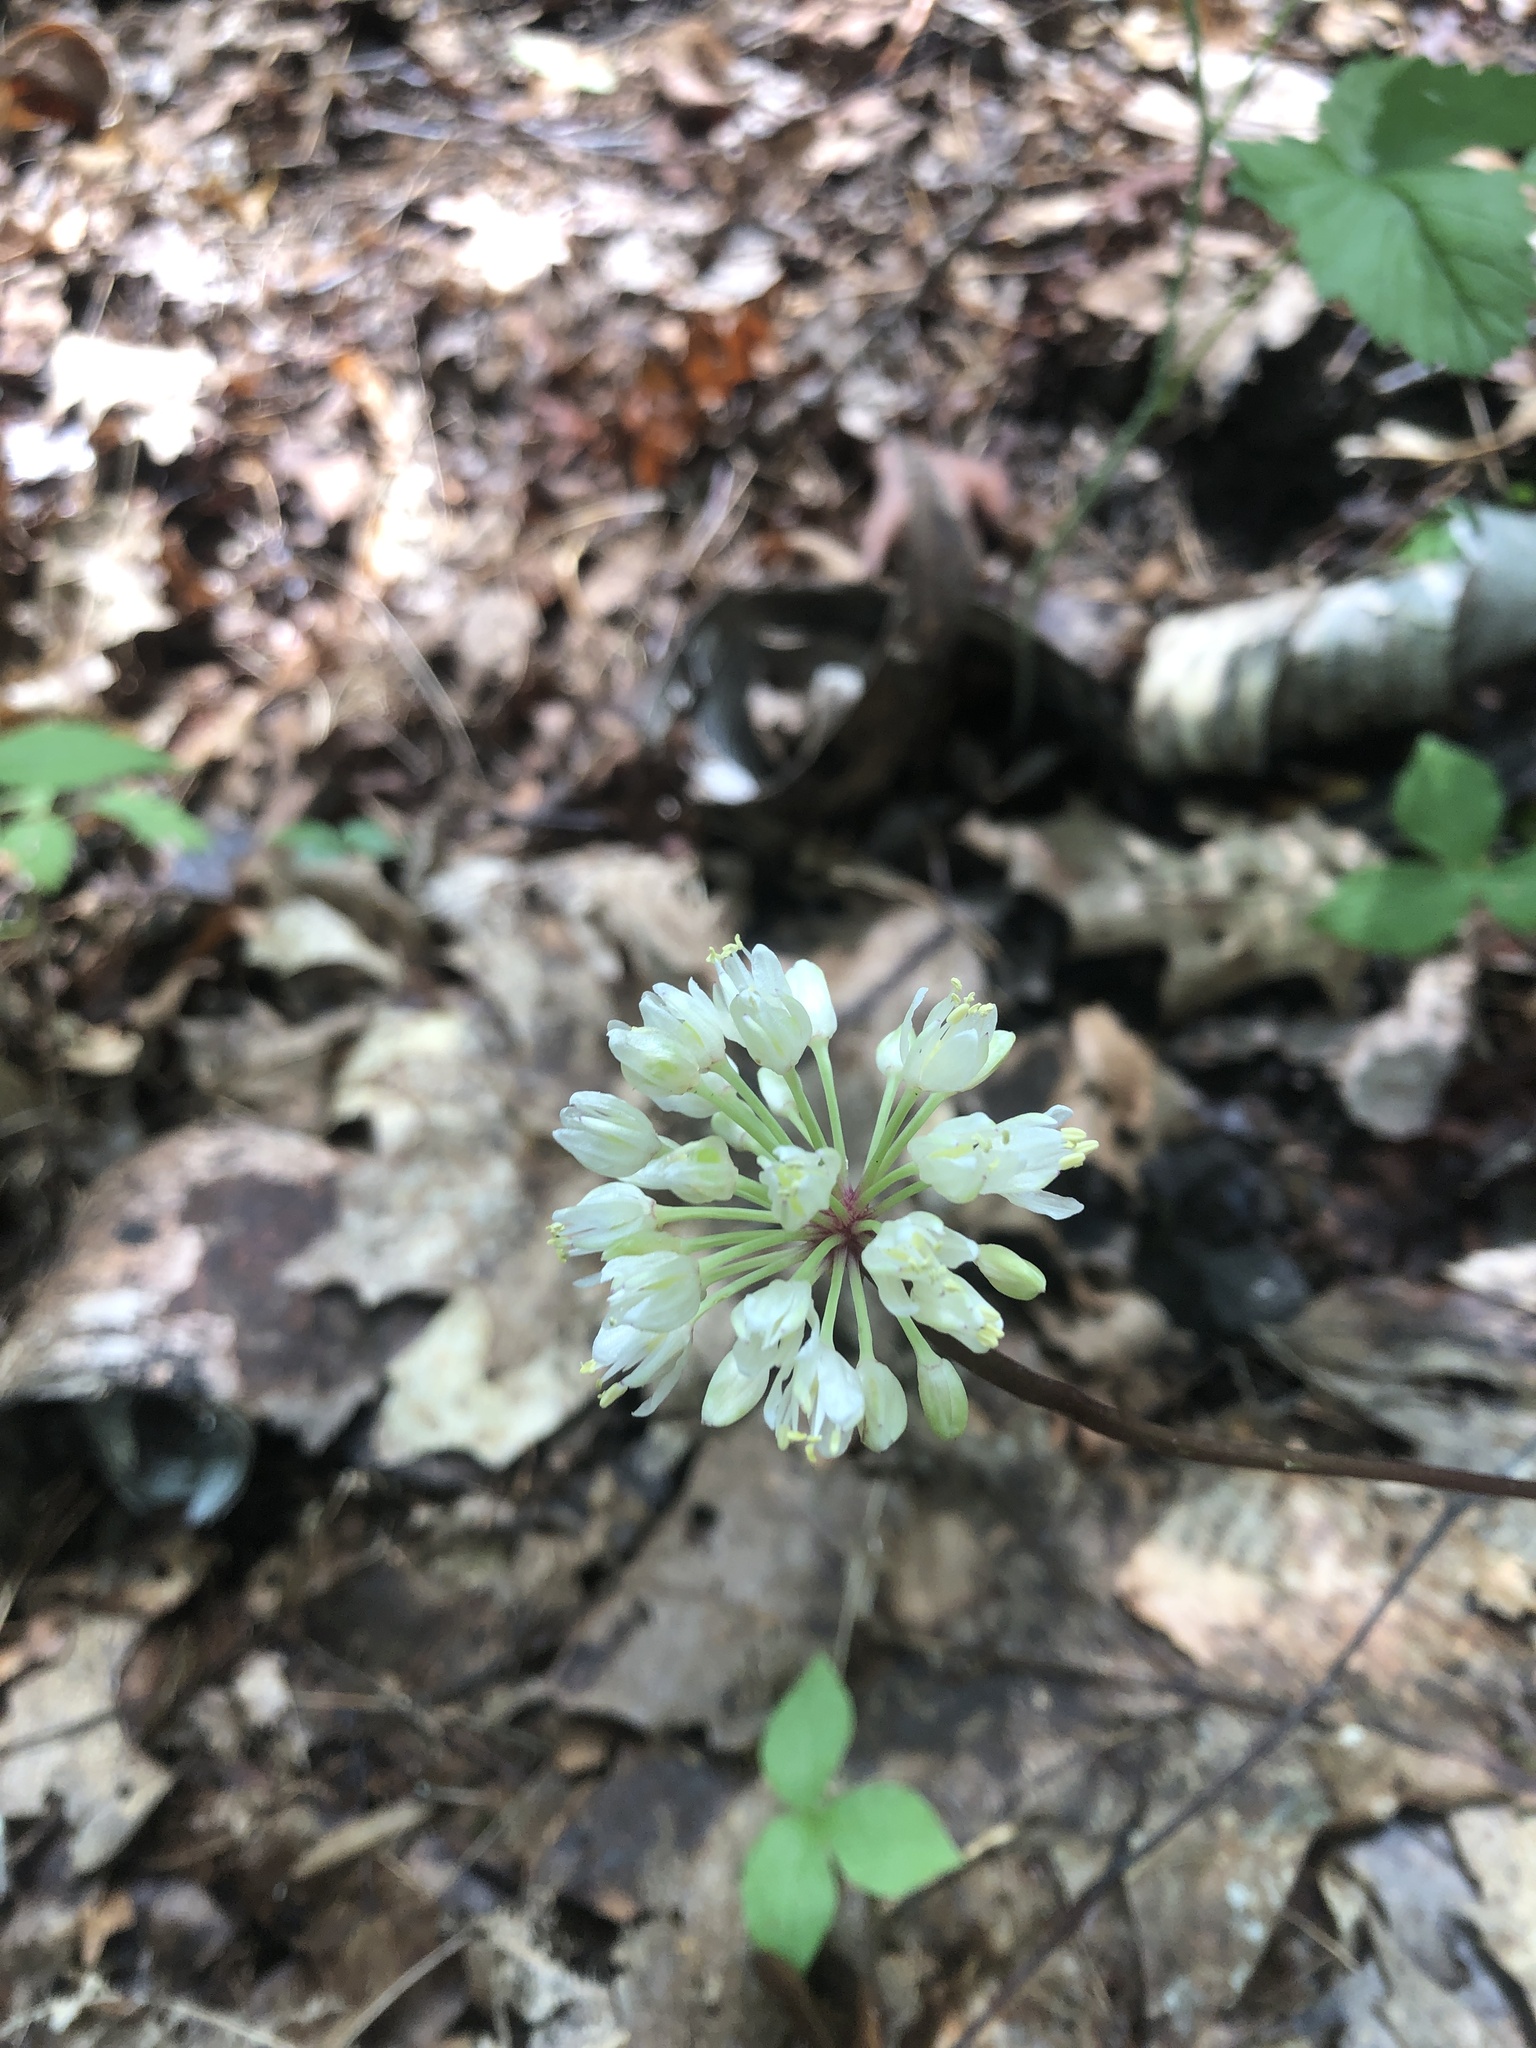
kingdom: Plantae
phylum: Tracheophyta
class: Liliopsida
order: Asparagales
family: Amaryllidaceae
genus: Allium
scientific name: Allium tricoccum
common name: Ramp
